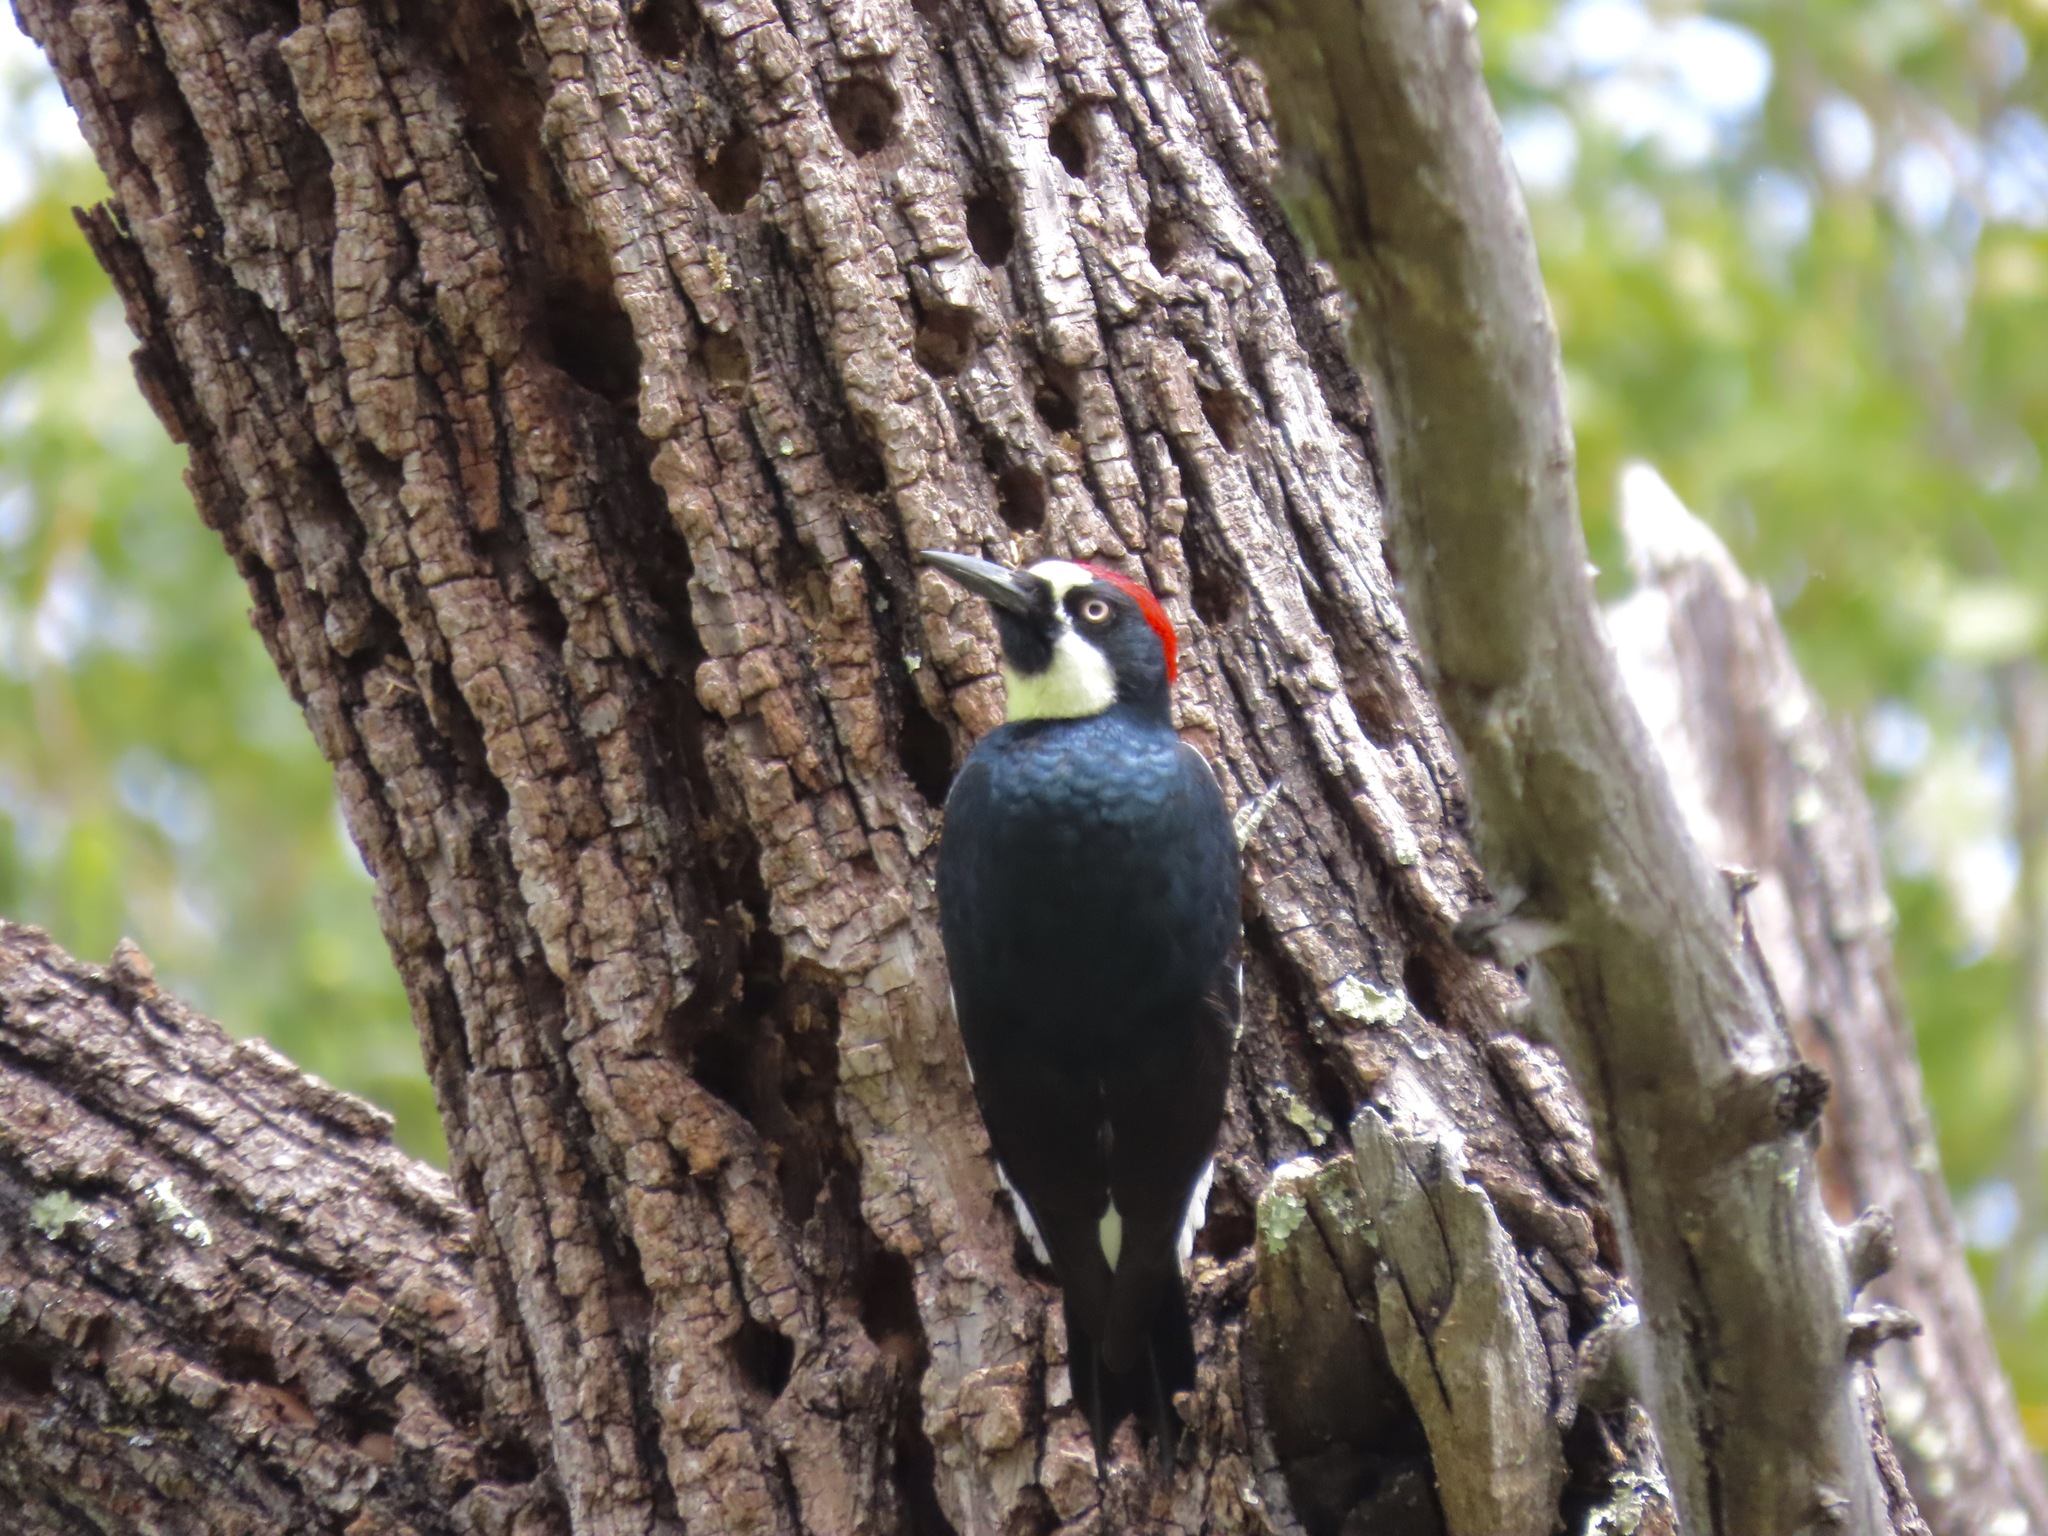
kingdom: Animalia
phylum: Chordata
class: Aves
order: Piciformes
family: Picidae
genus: Melanerpes
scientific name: Melanerpes formicivorus
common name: Acorn woodpecker
